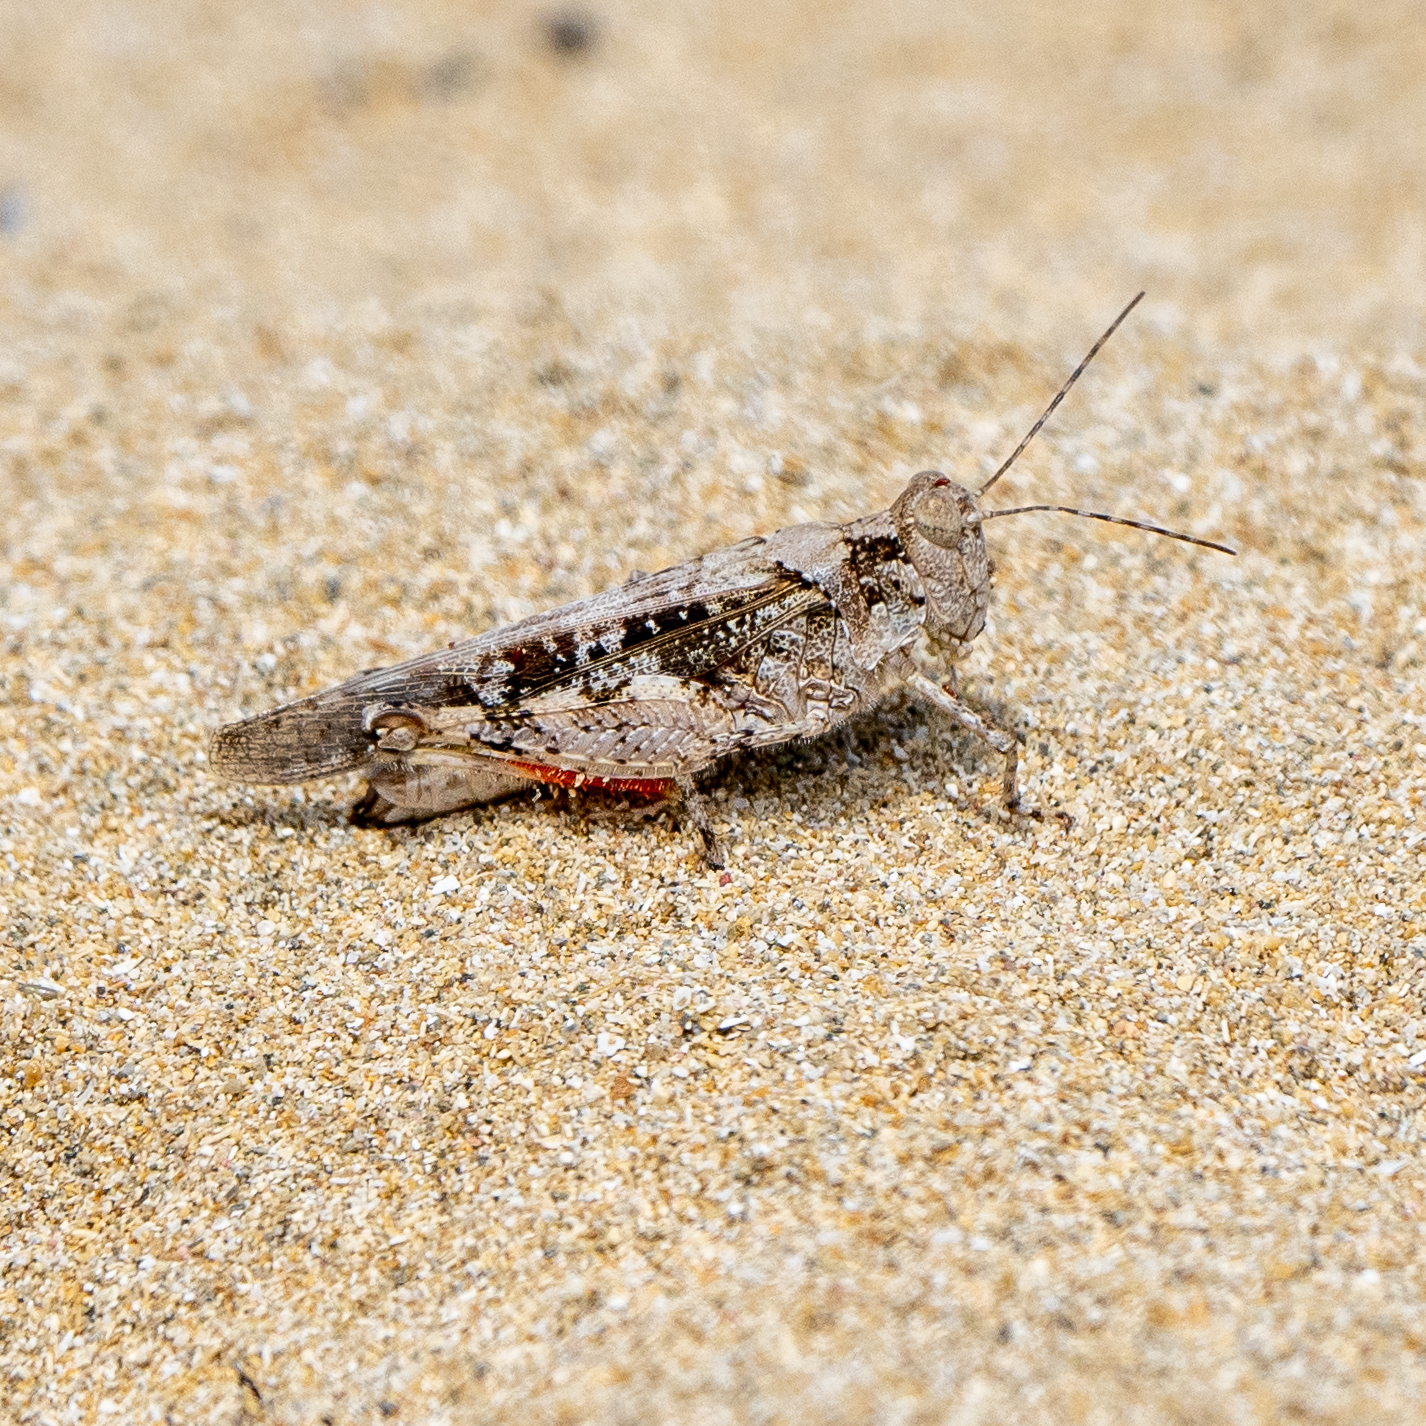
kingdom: Animalia
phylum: Arthropoda
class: Insecta
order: Orthoptera
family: Acrididae
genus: Heliastus
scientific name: Heliastus sumichrasti
